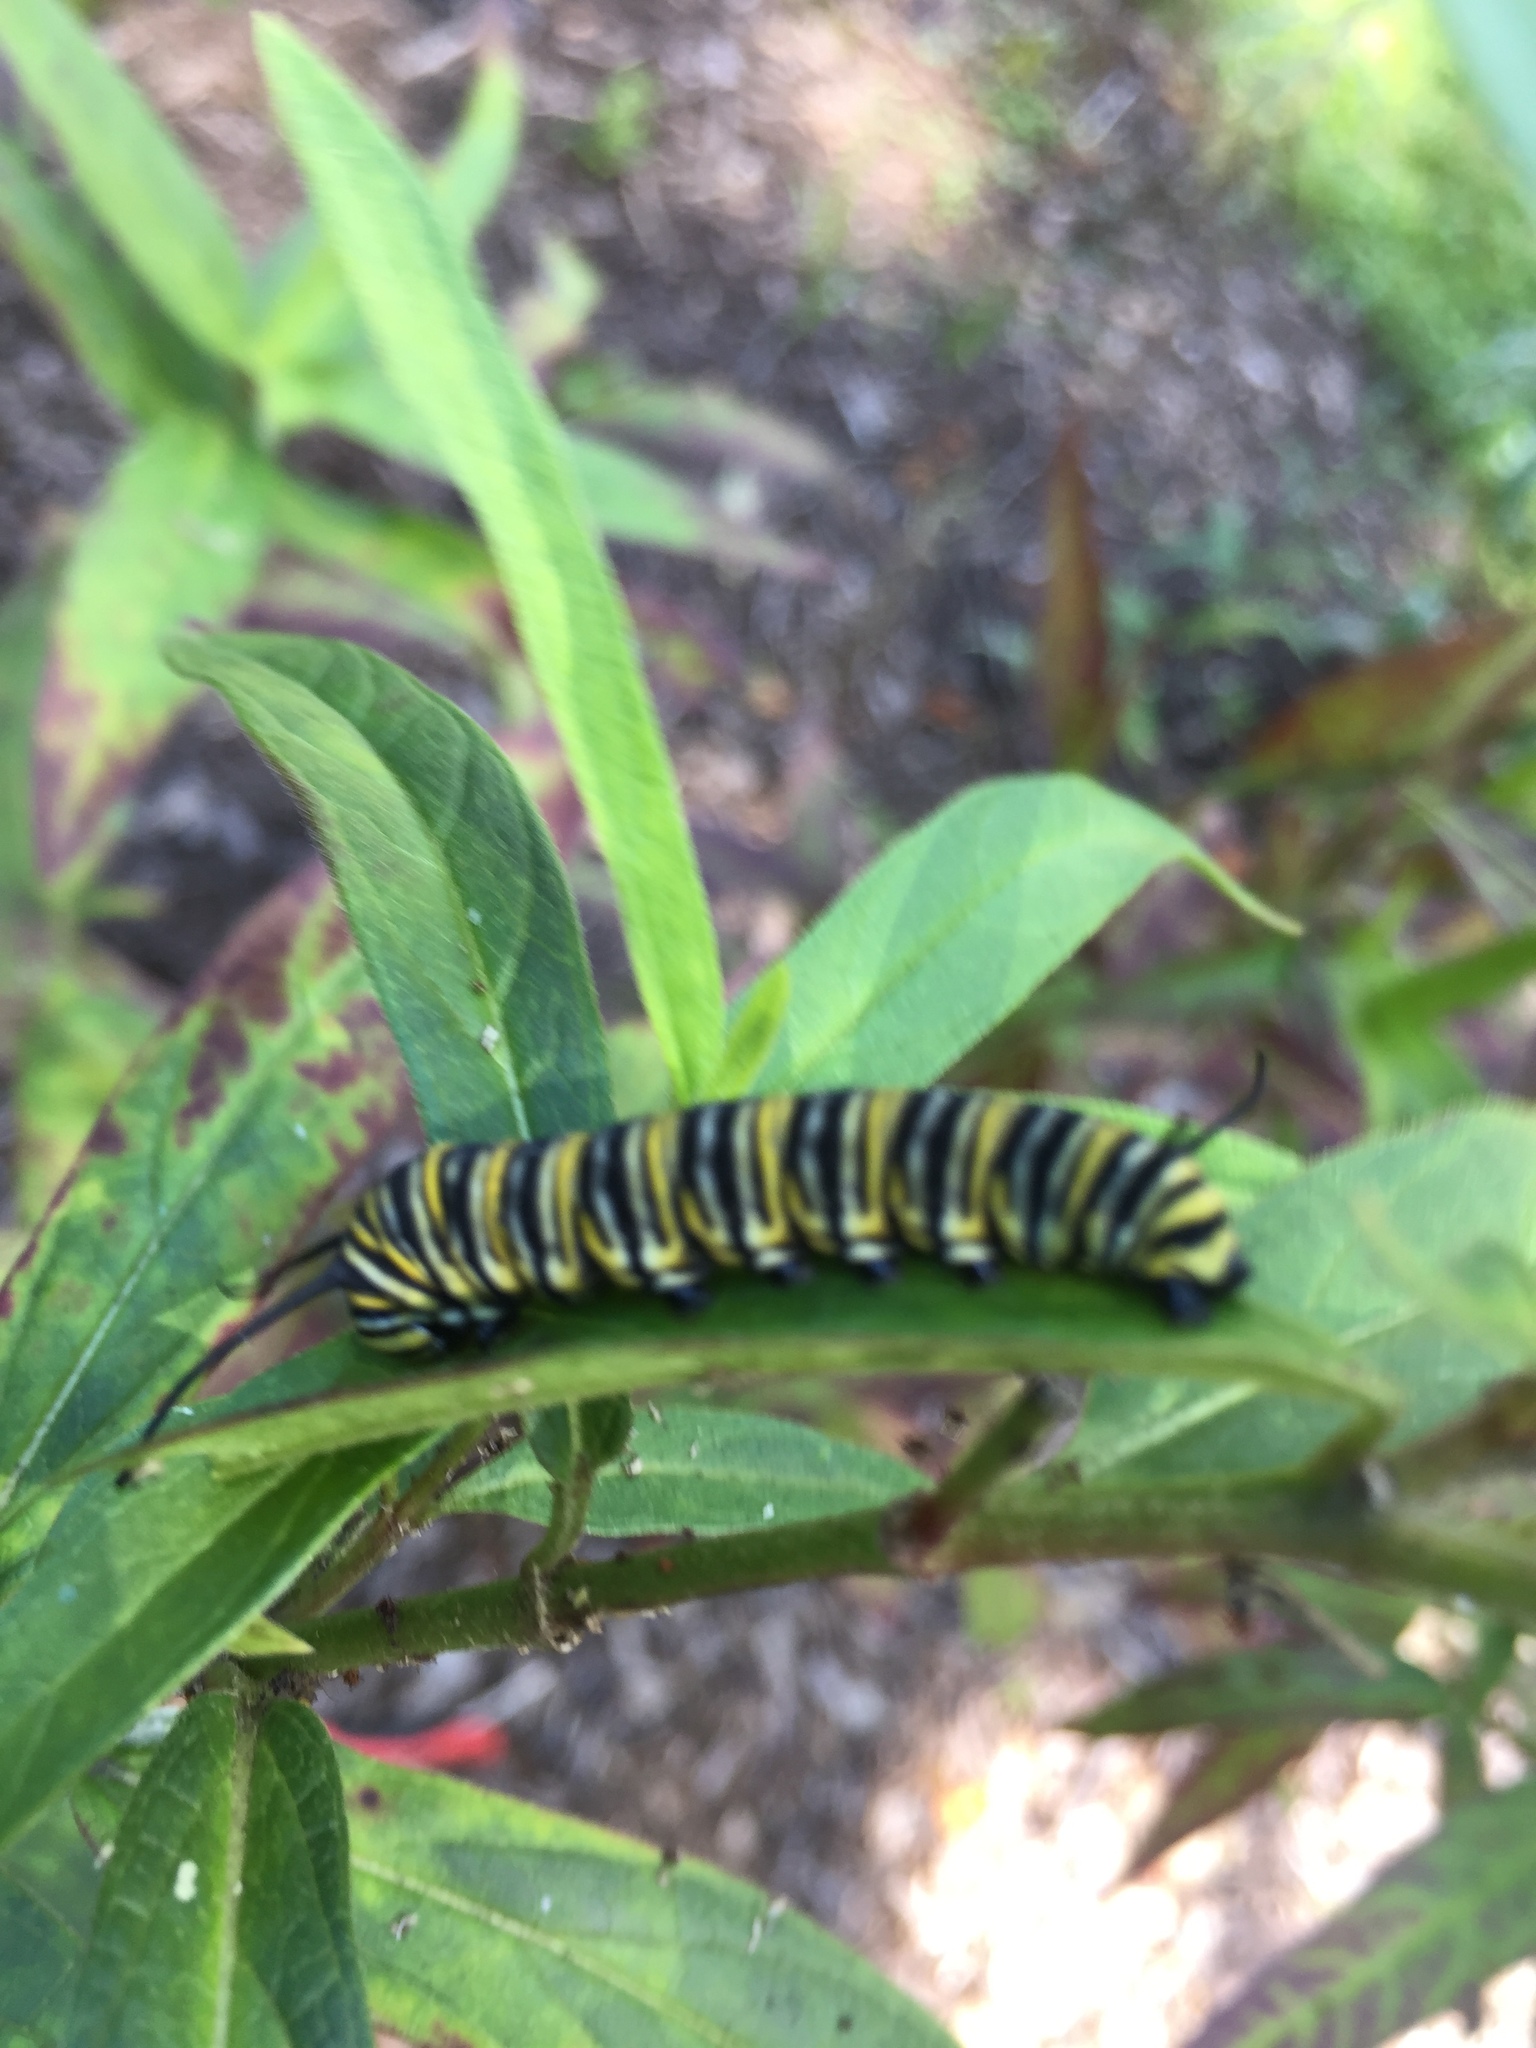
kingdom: Animalia
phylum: Arthropoda
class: Insecta
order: Lepidoptera
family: Nymphalidae
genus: Danaus
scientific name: Danaus plexippus
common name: Monarch
